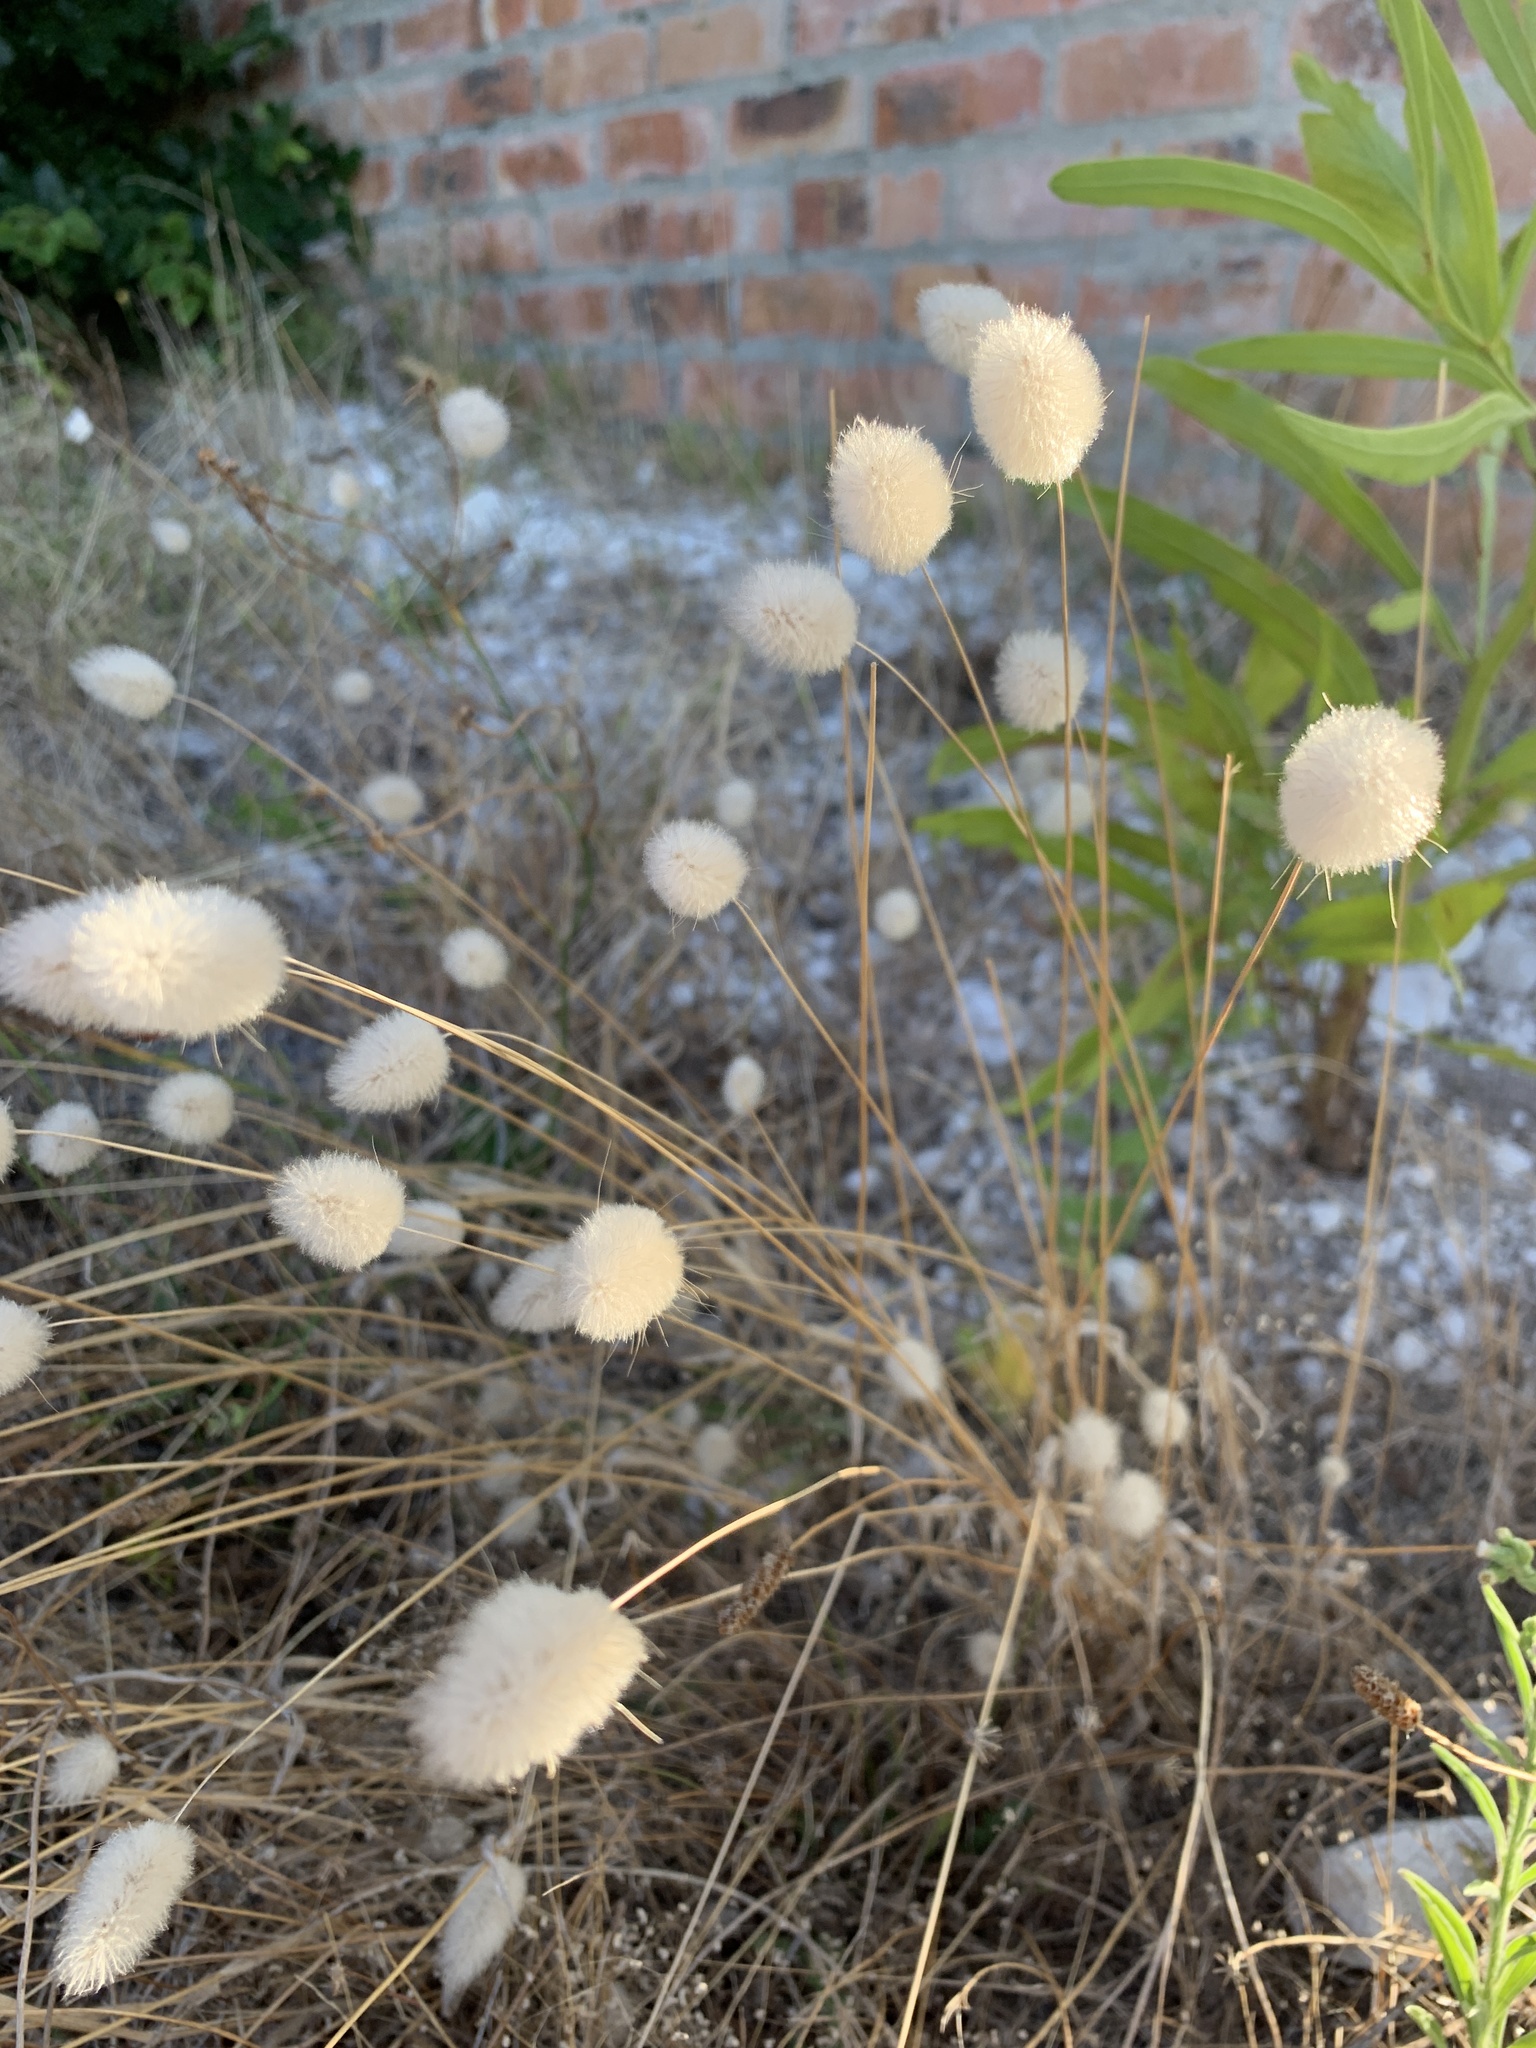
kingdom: Plantae
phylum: Tracheophyta
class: Liliopsida
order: Poales
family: Poaceae
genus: Lagurus
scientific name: Lagurus ovatus
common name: Hare's-tail
